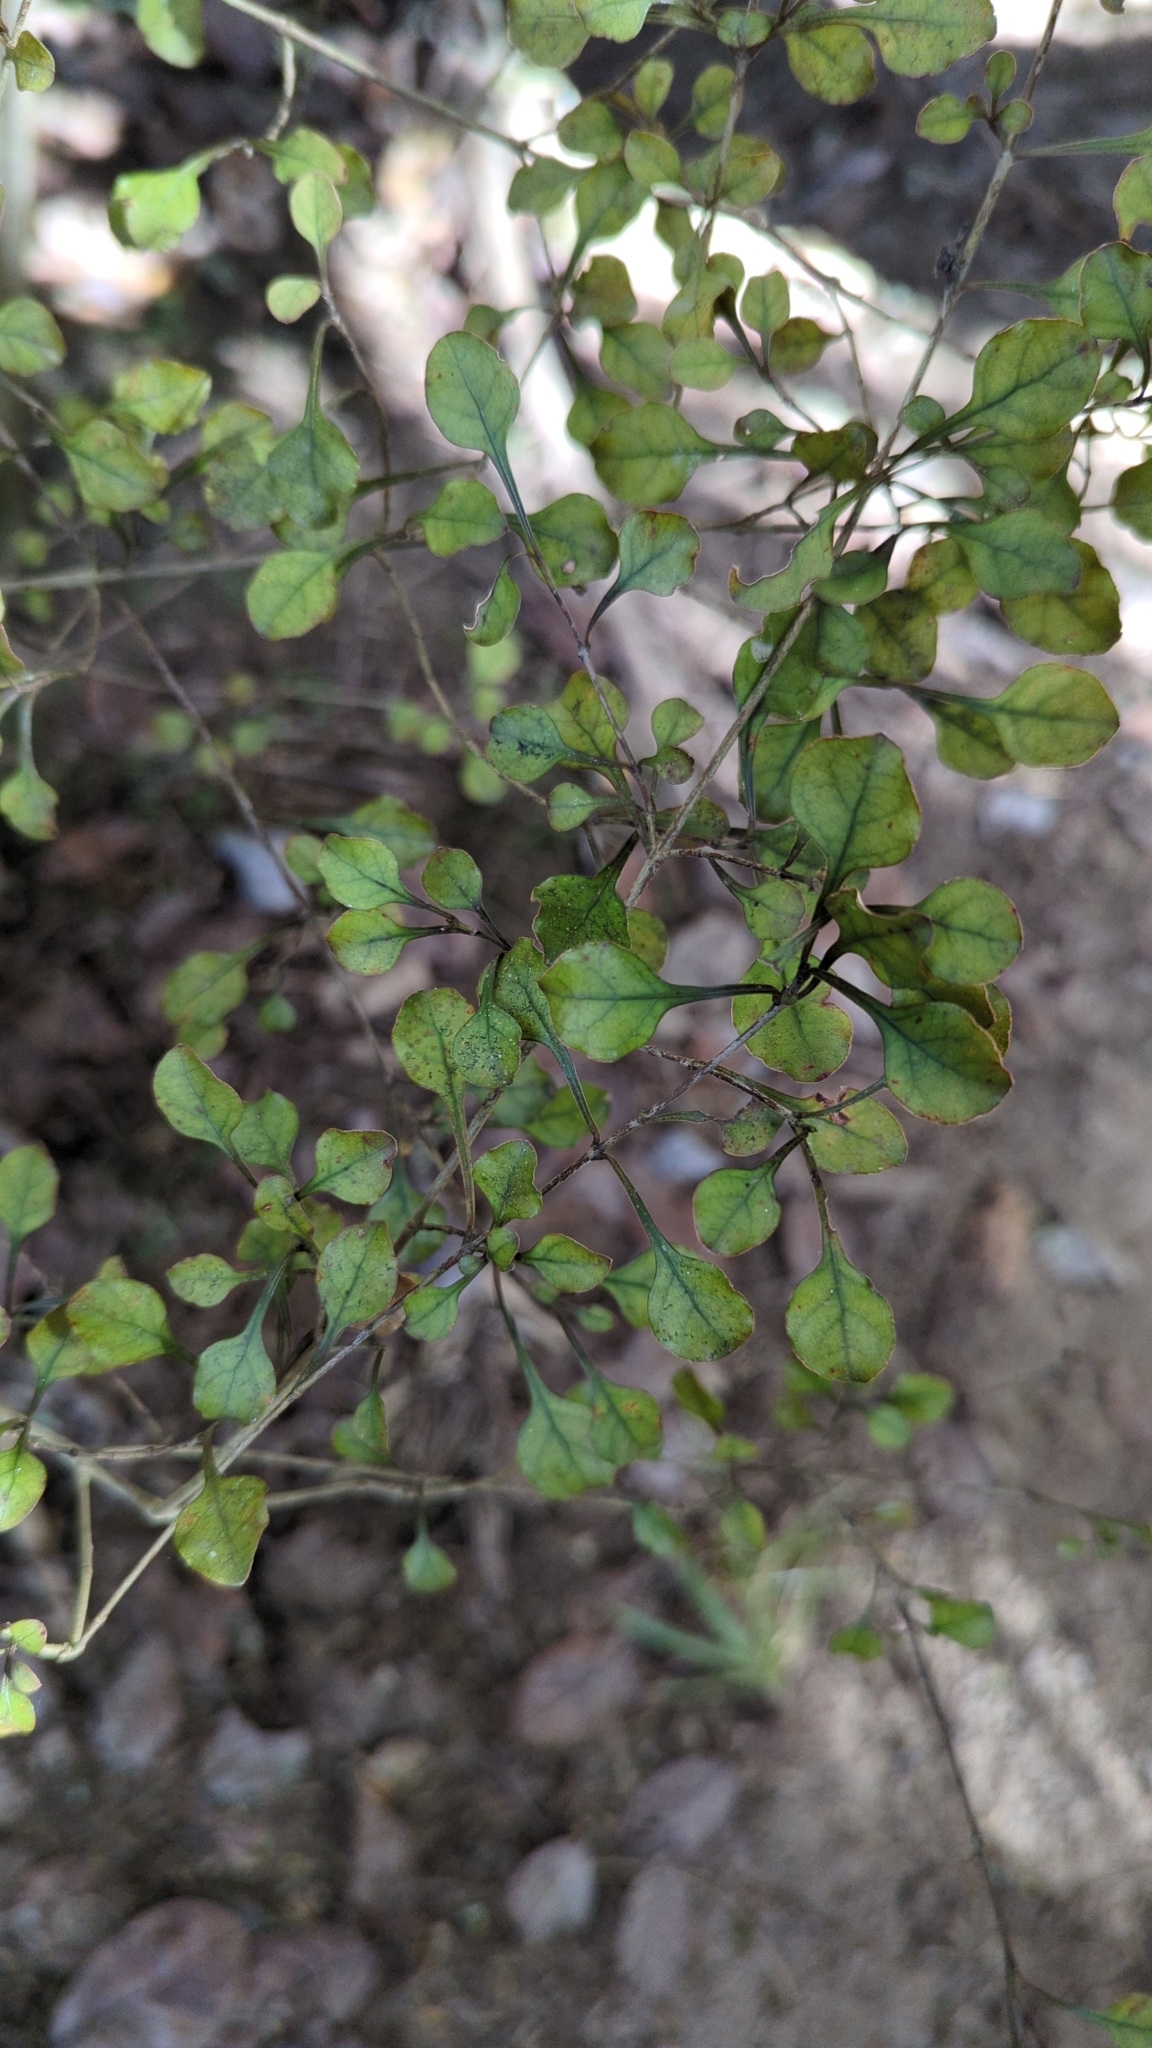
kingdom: Plantae
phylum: Tracheophyta
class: Magnoliopsida
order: Gentianales
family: Rubiaceae
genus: Coprosma
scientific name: Coprosma arborea
